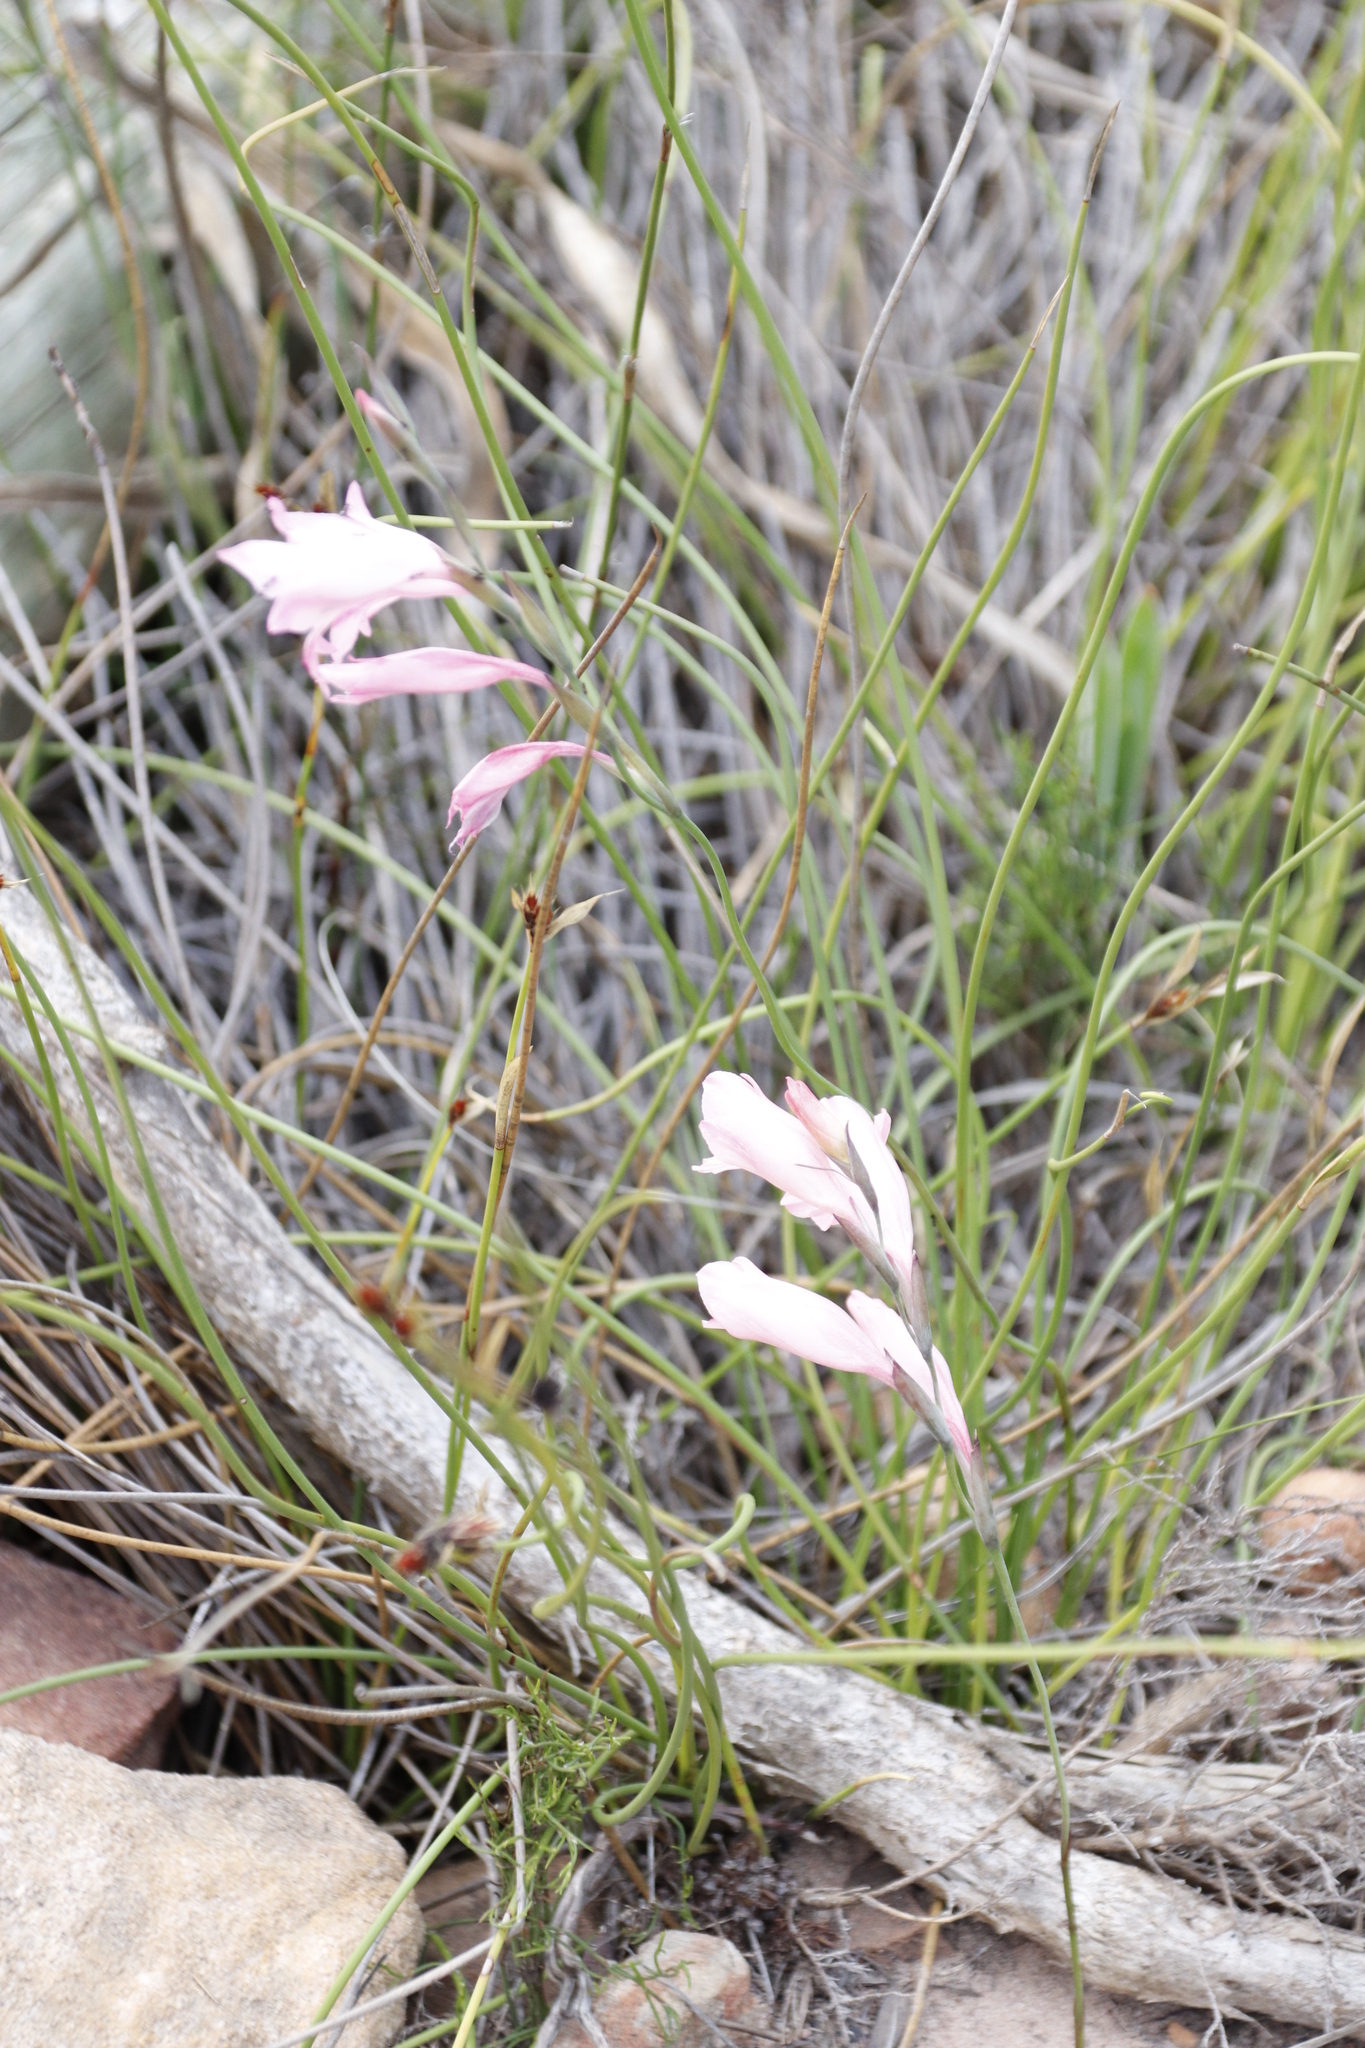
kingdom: Plantae
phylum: Tracheophyta
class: Liliopsida
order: Asparagales
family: Iridaceae
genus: Gladiolus
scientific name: Gladiolus brevifolius
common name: March pypie
